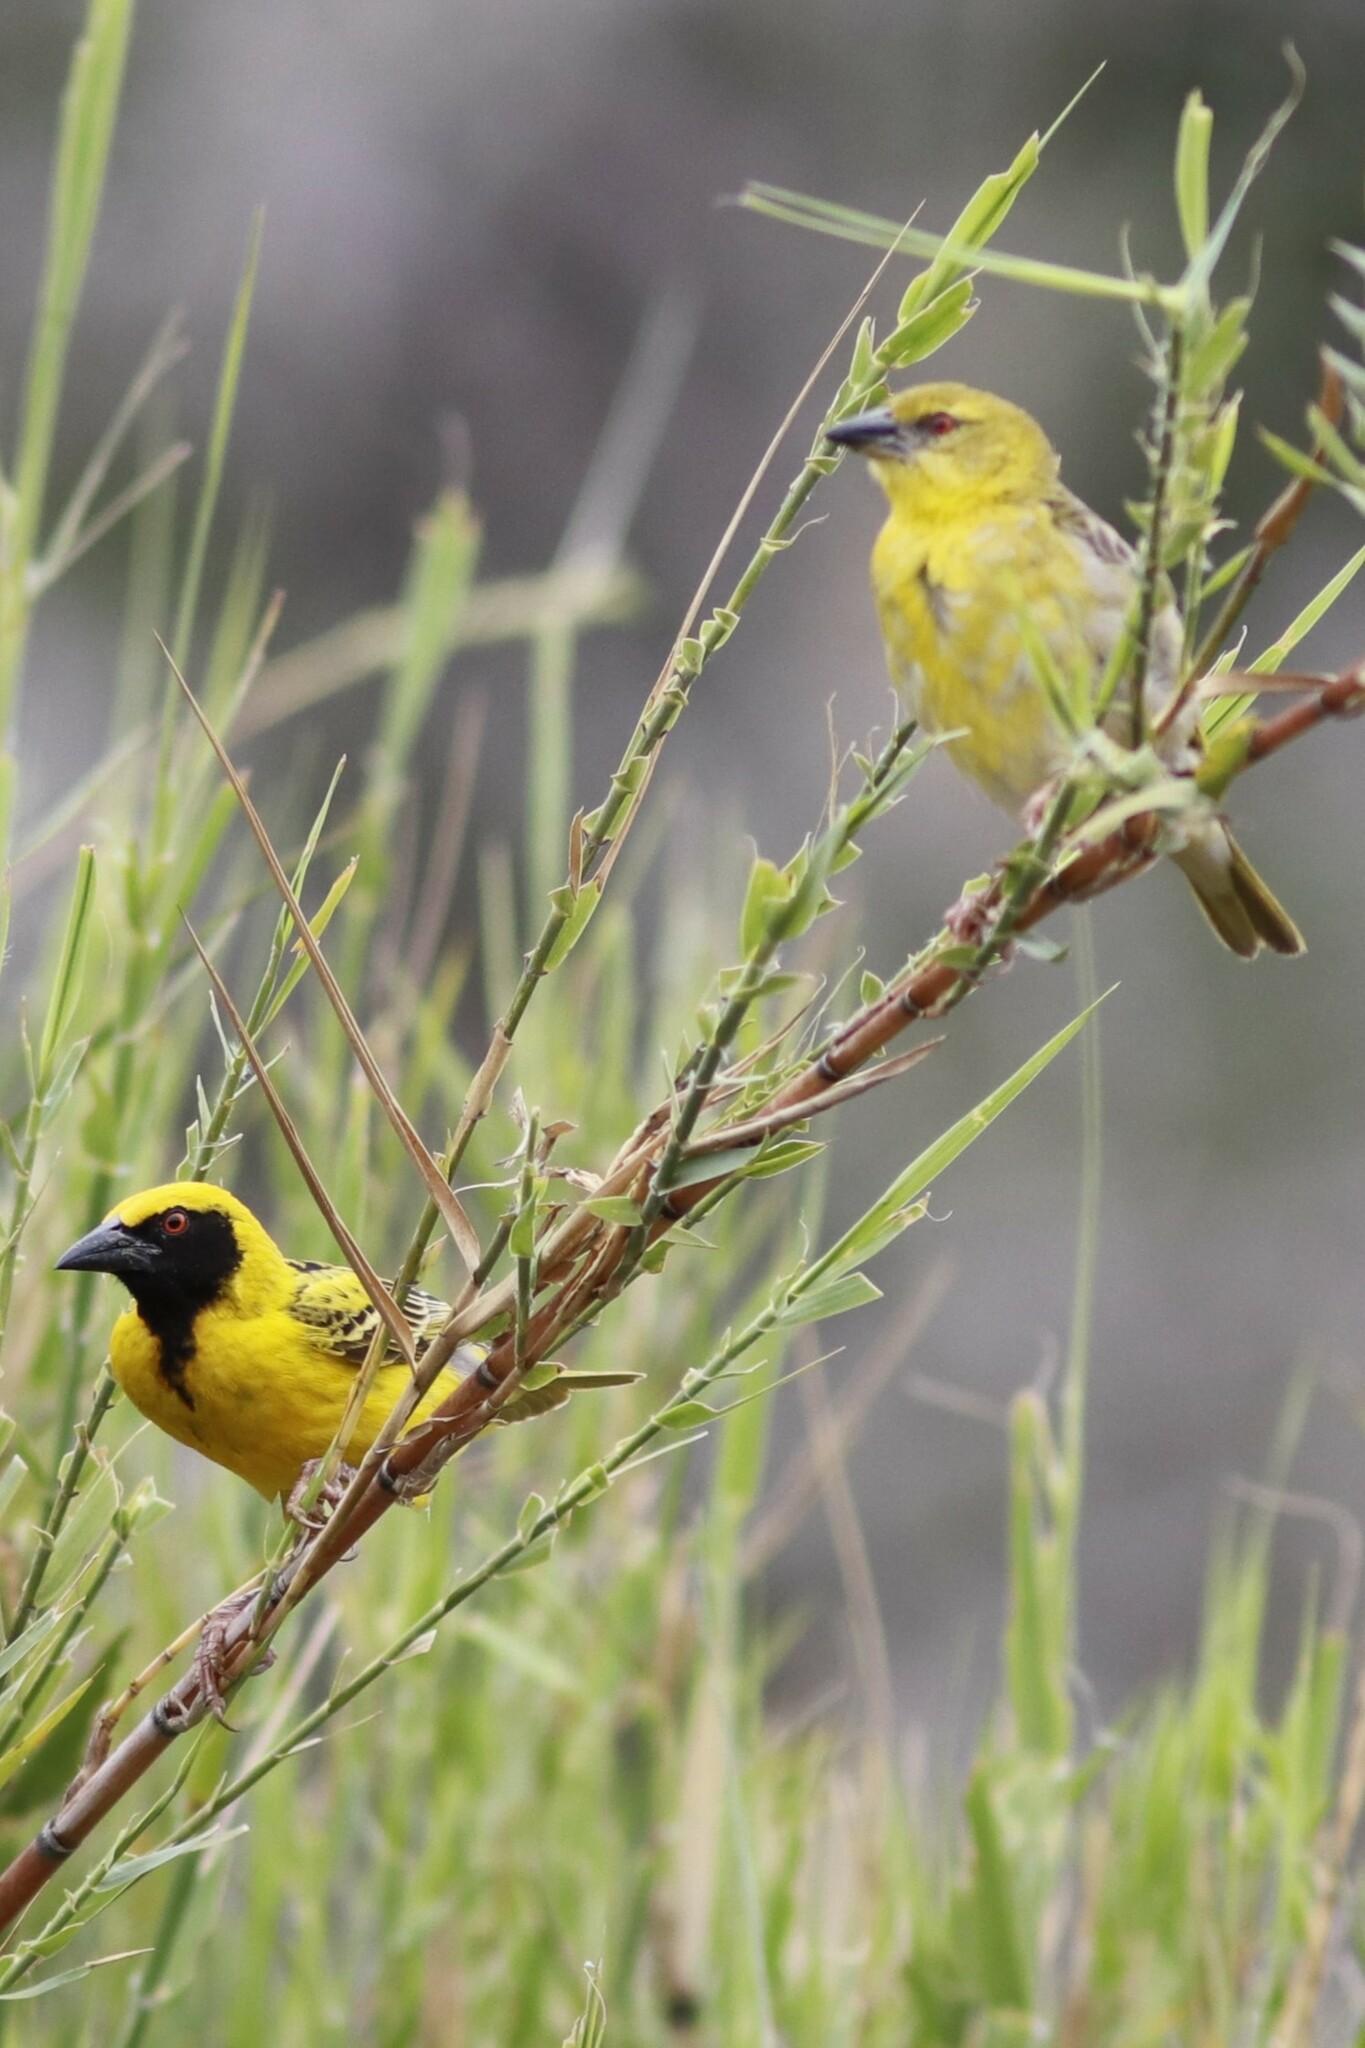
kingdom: Animalia
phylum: Chordata
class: Aves
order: Passeriformes
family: Ploceidae
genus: Ploceus
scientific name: Ploceus cucullatus
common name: Village weaver
